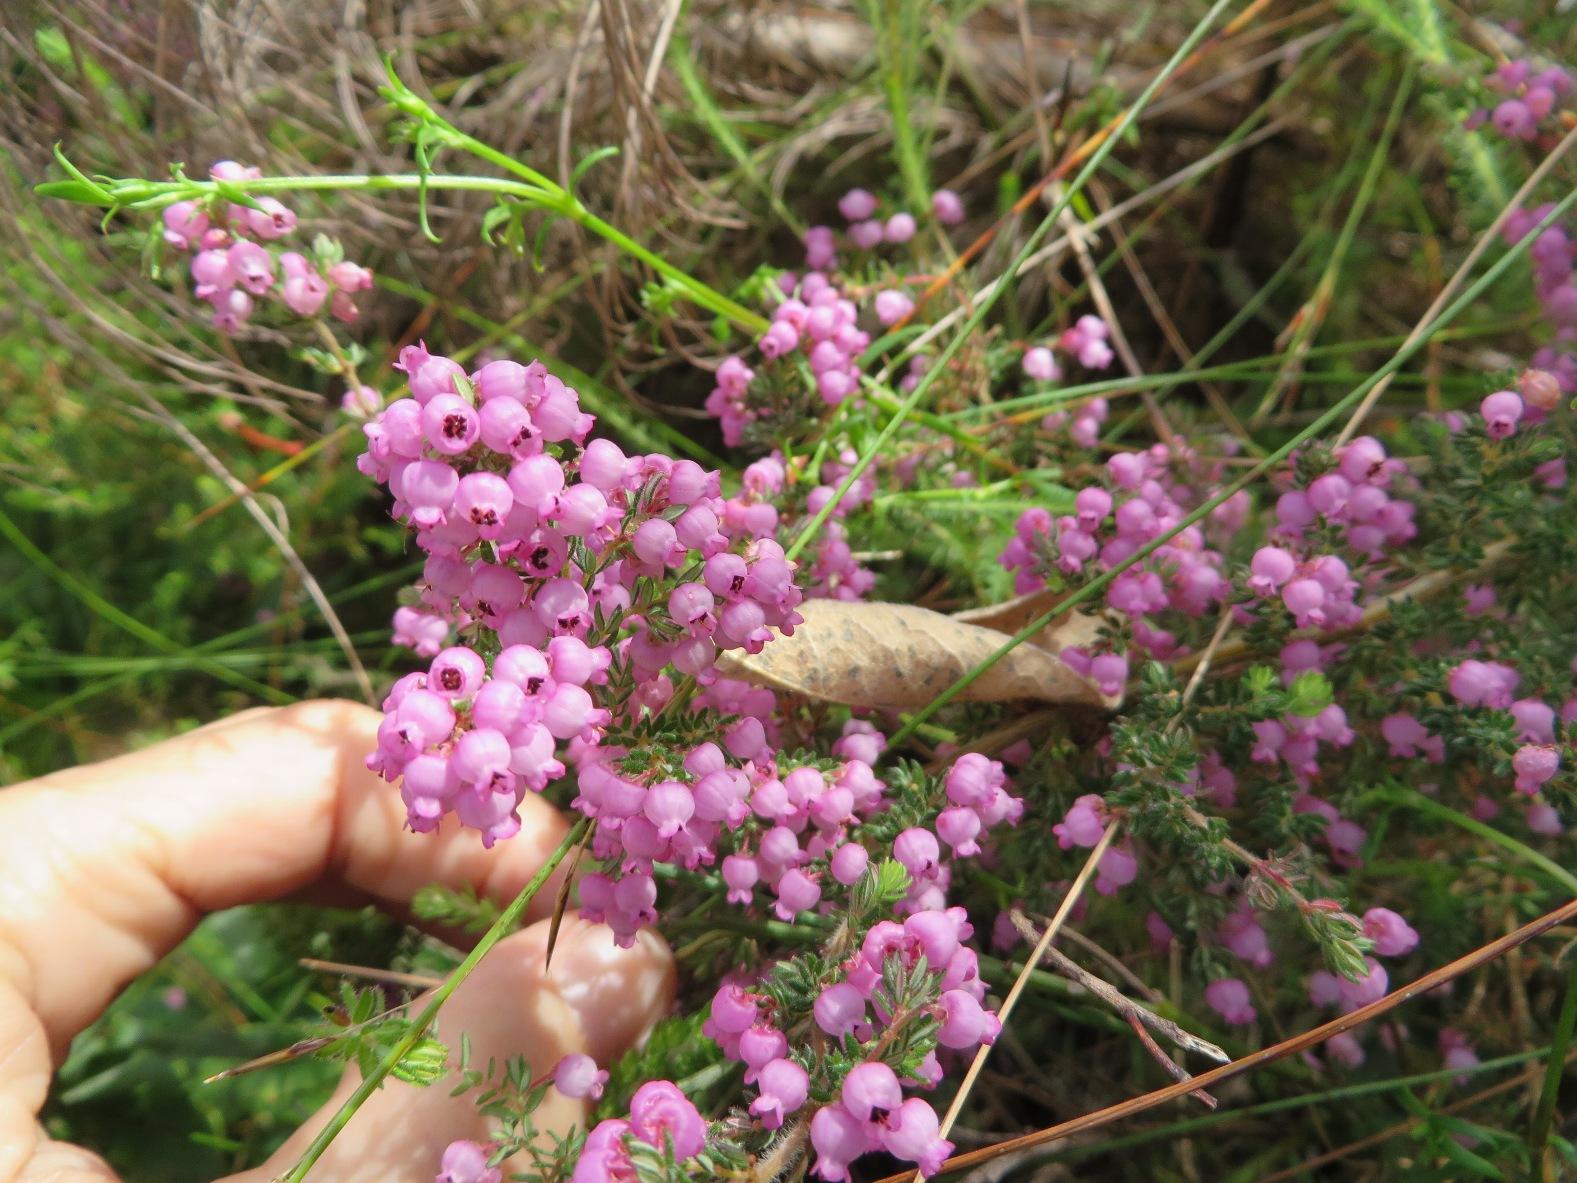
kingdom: Plantae
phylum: Tracheophyta
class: Magnoliopsida
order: Ericales
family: Ericaceae
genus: Erica
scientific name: Erica bergiana
